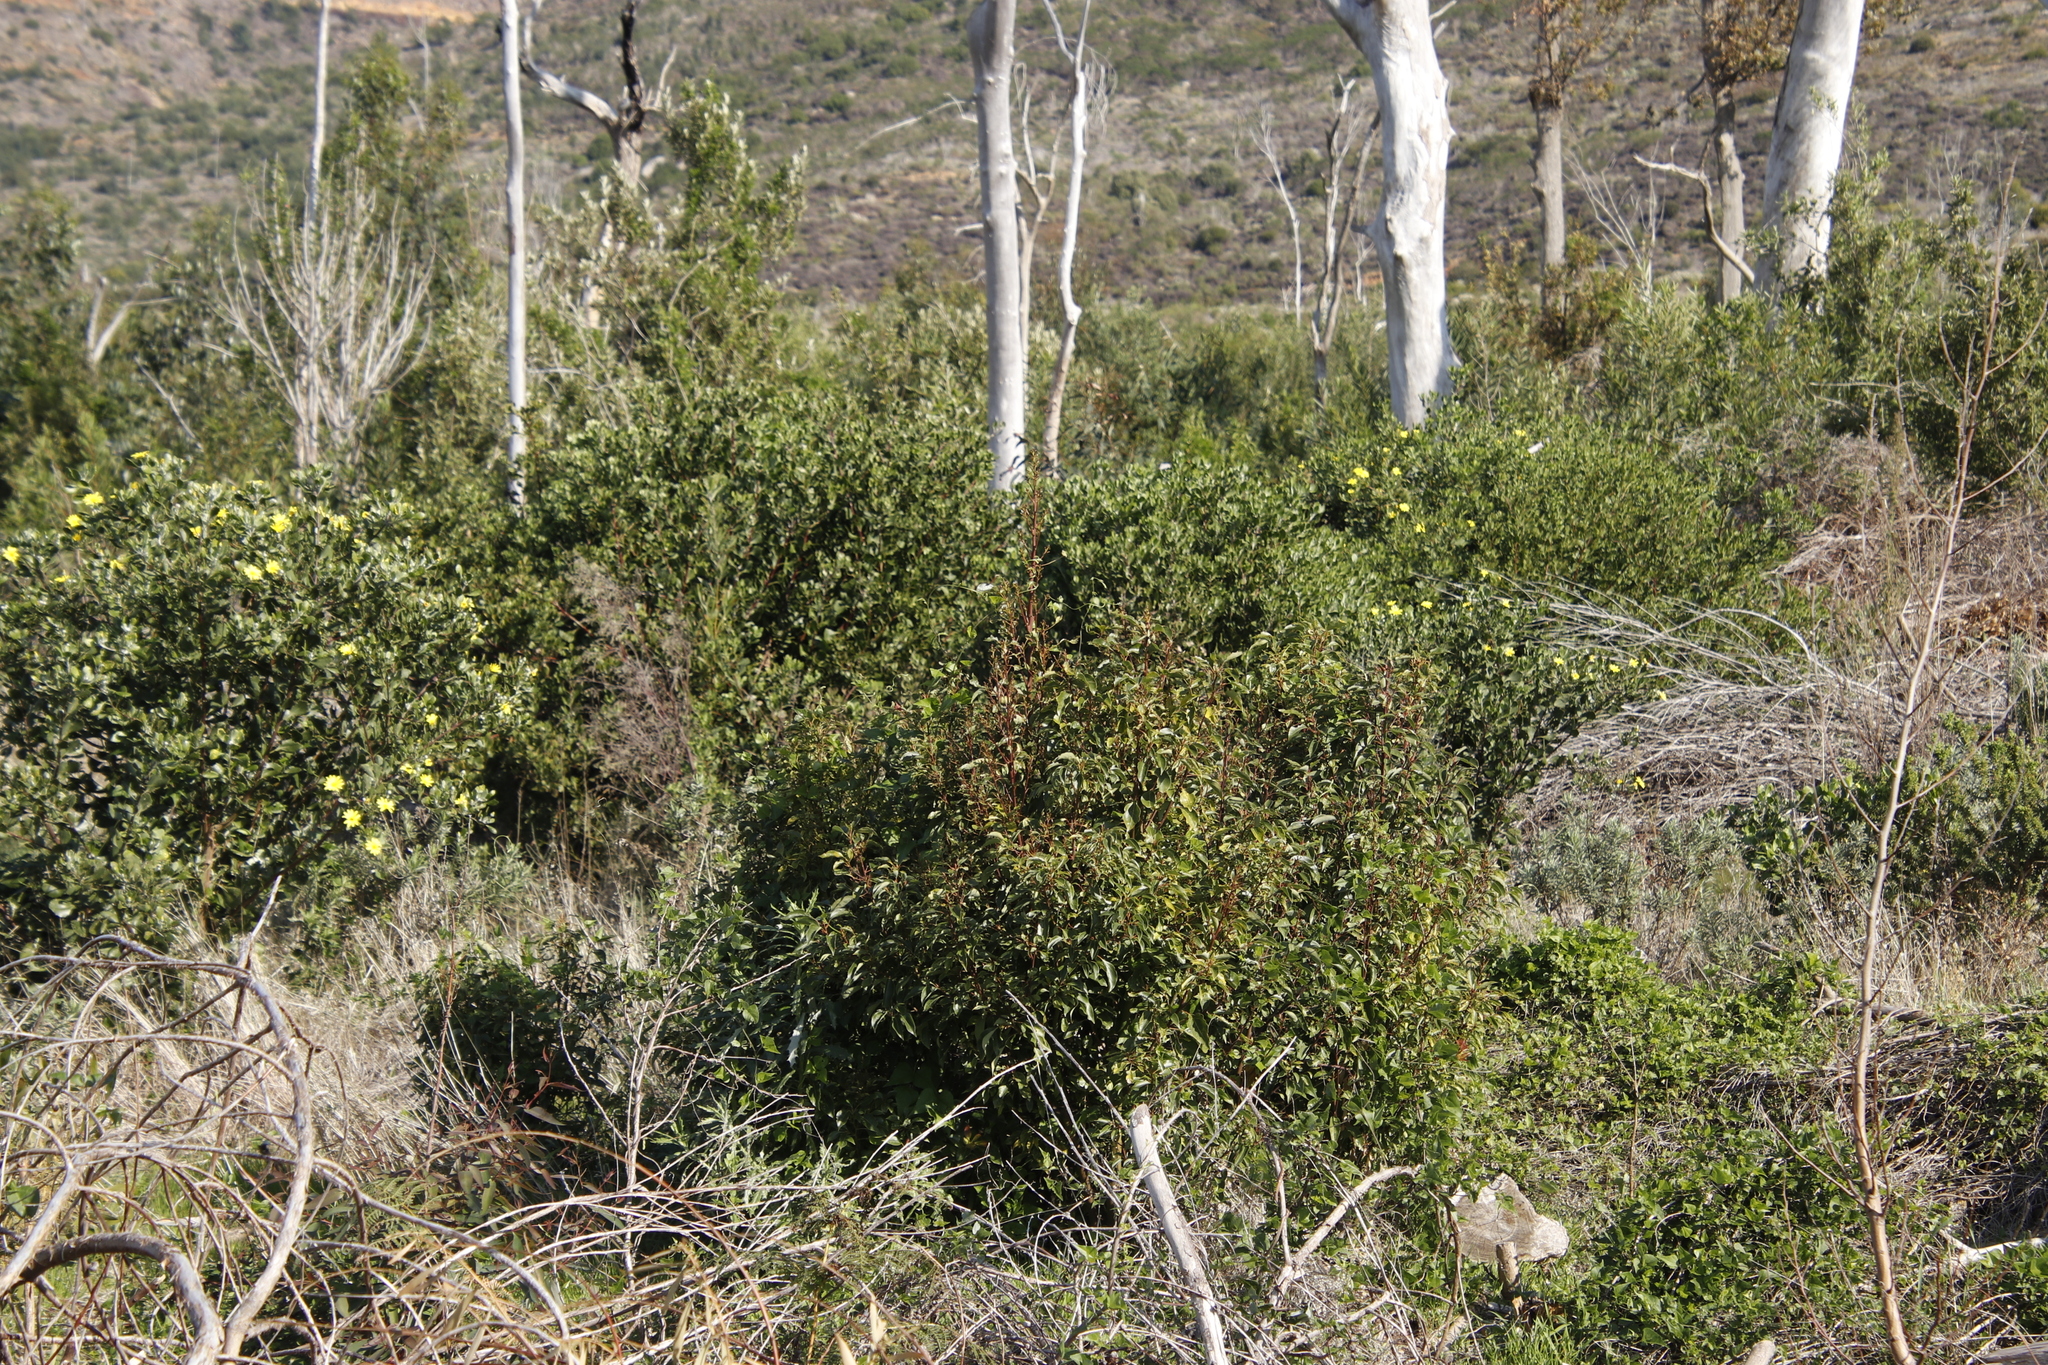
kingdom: Plantae
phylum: Tracheophyta
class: Magnoliopsida
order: Laurales
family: Lauraceae
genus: Cinnamomum
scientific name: Cinnamomum camphora
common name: Camphortree
